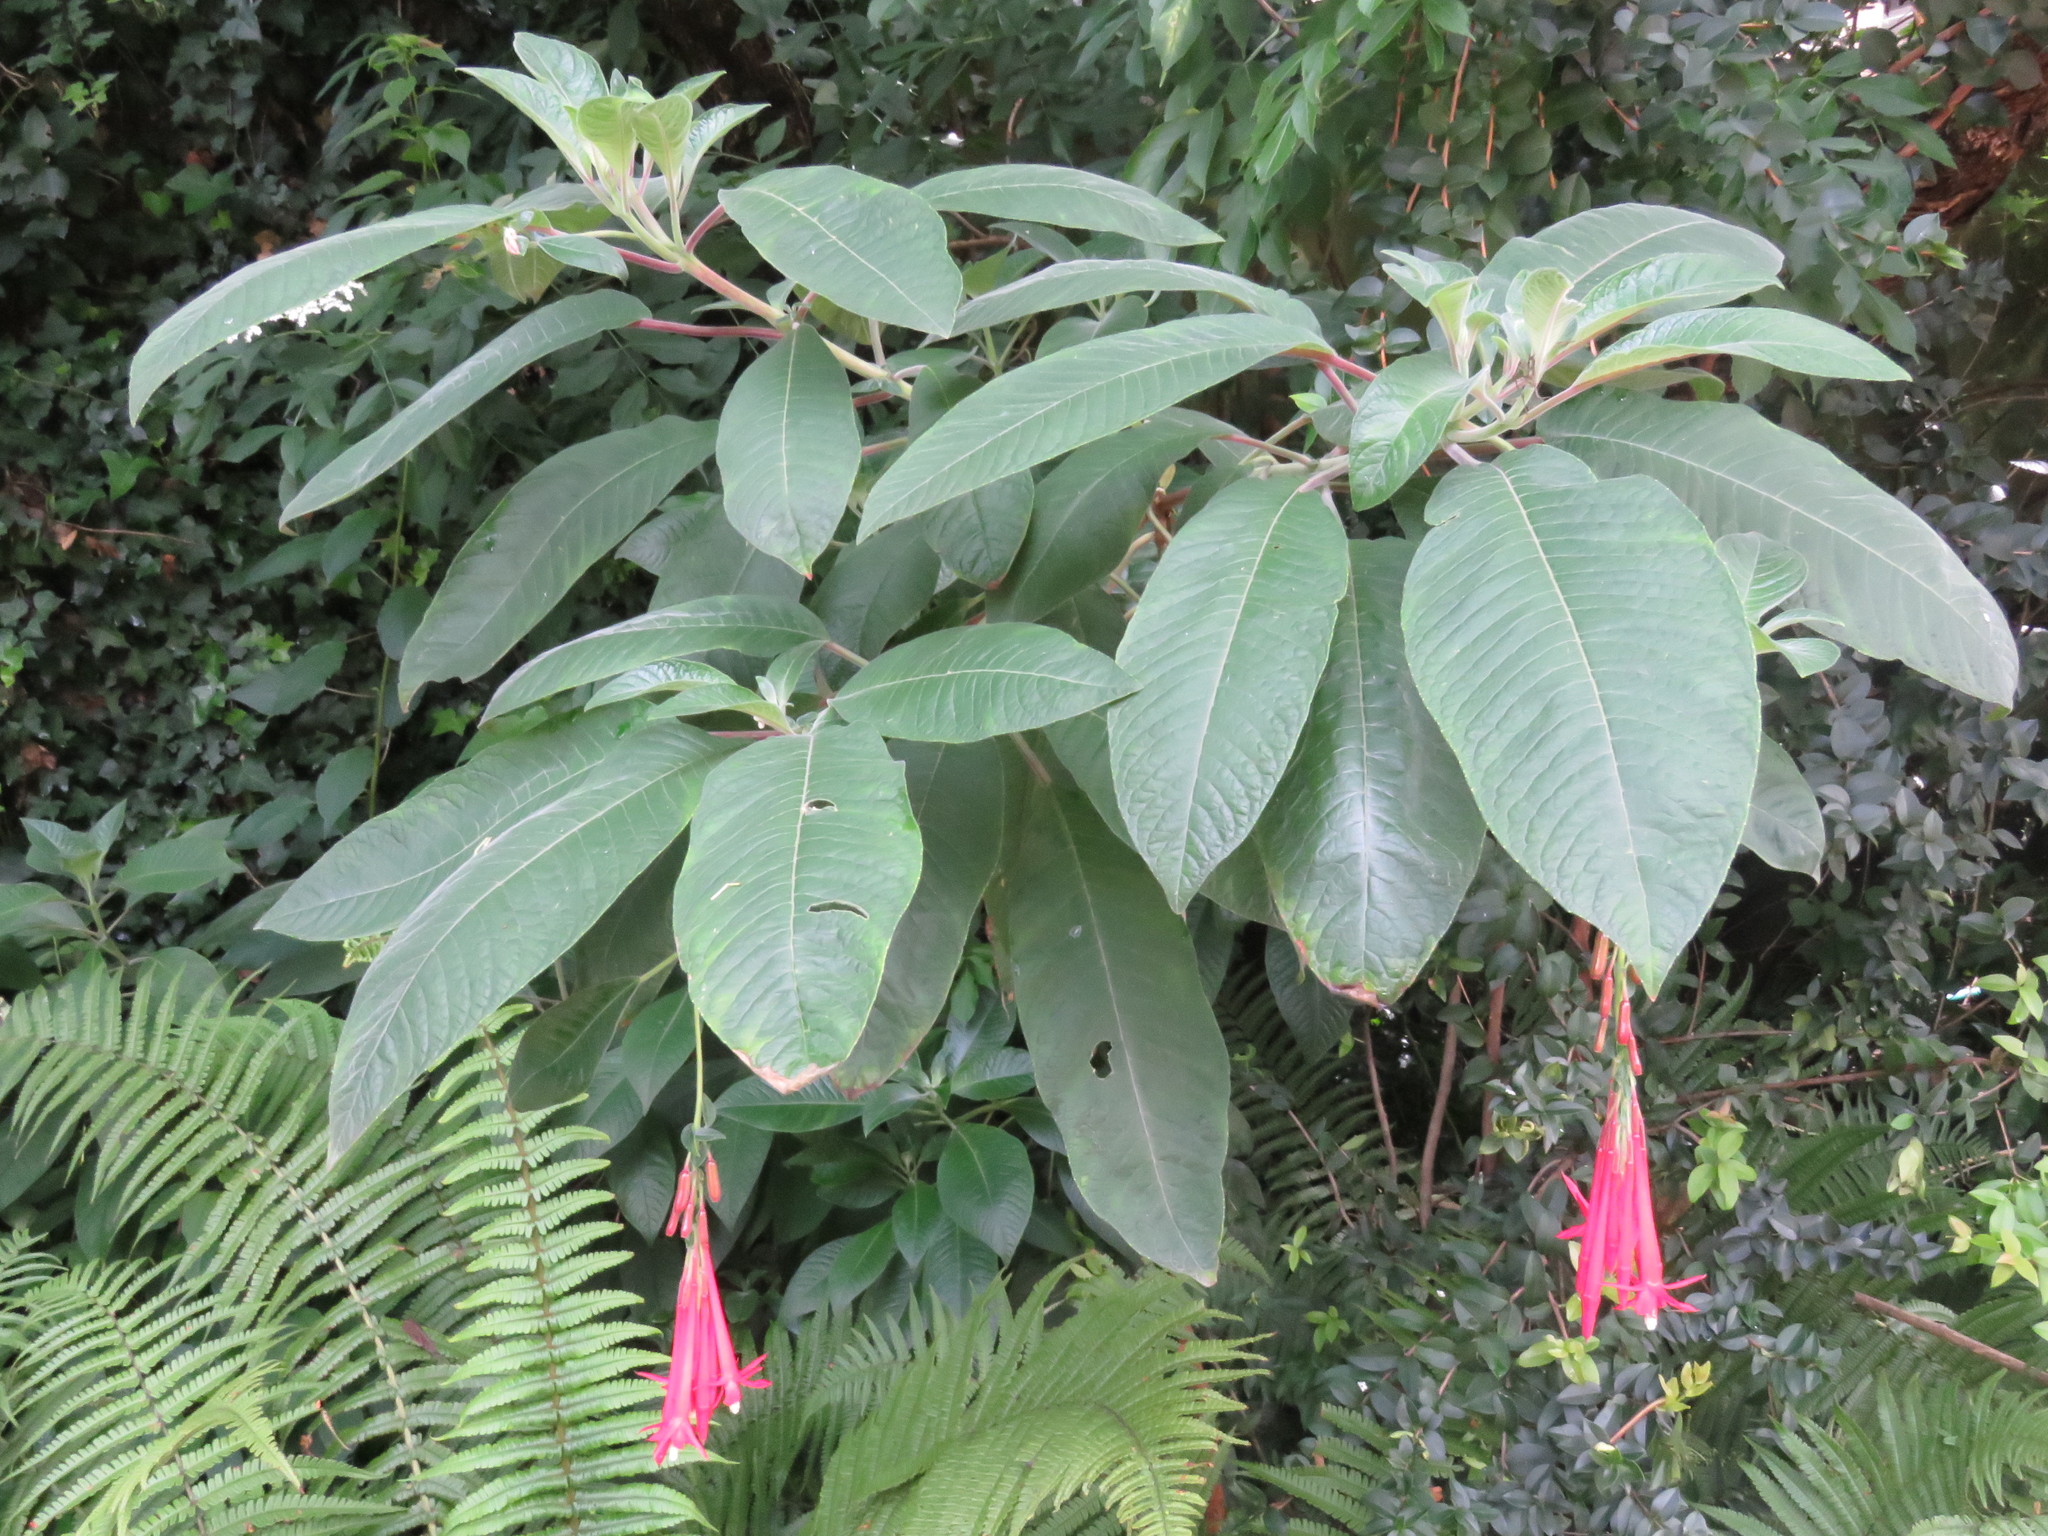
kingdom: Plantae
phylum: Tracheophyta
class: Magnoliopsida
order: Myrtales
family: Onagraceae
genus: Fuchsia
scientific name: Fuchsia boliviana
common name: Bolivian fuchsia
